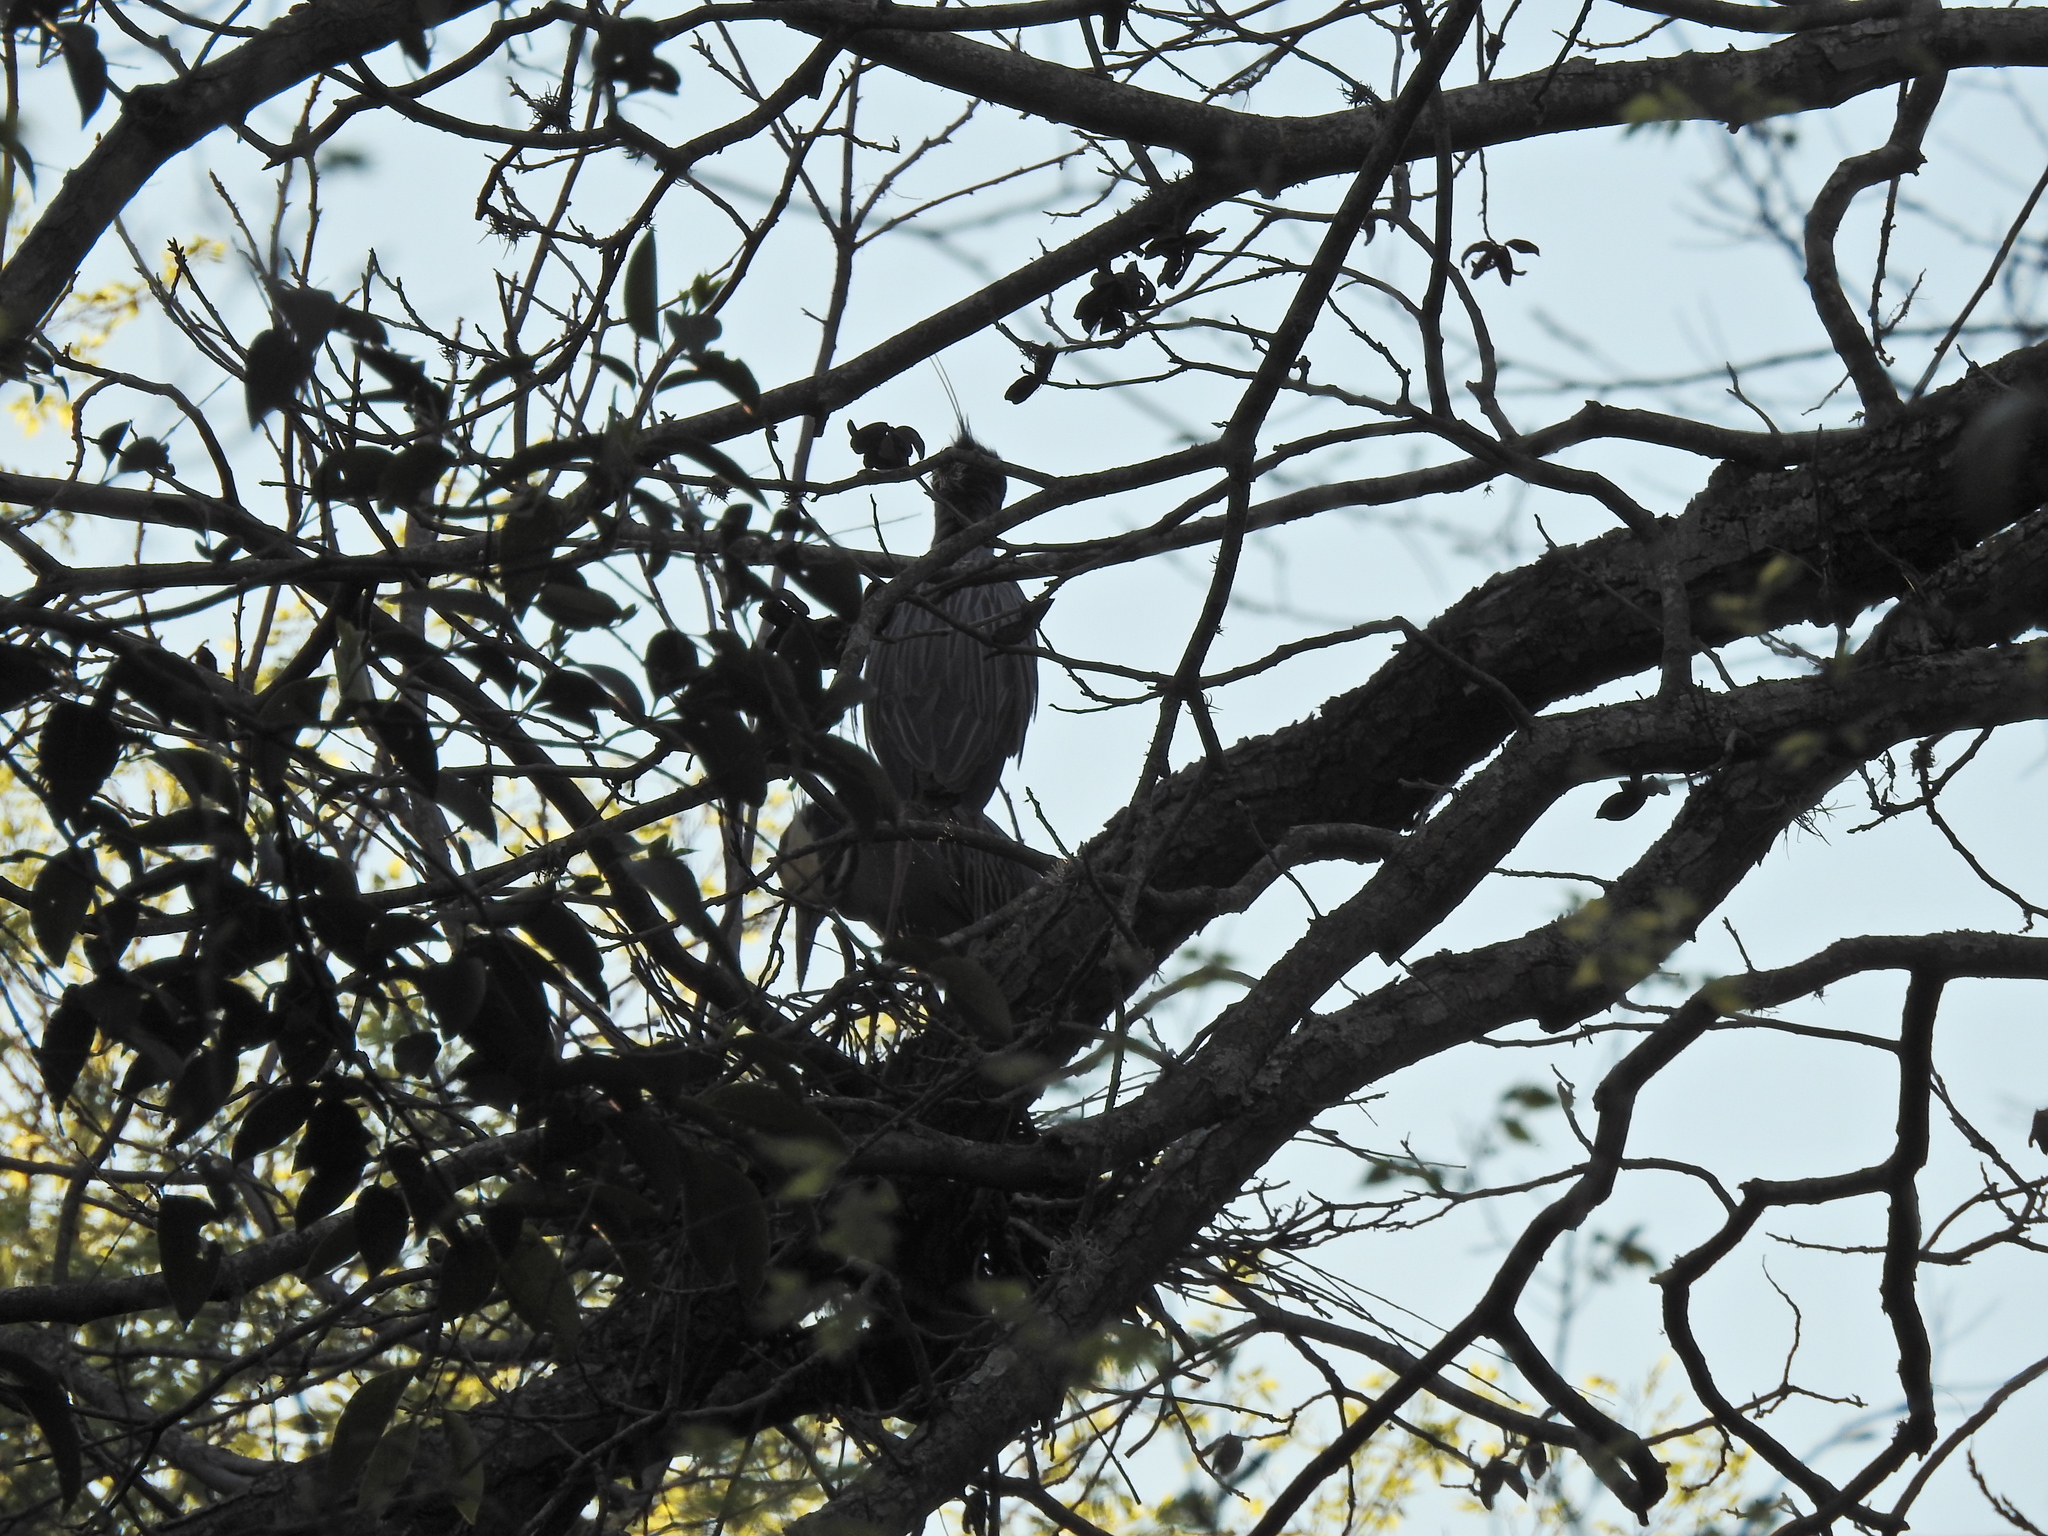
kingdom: Animalia
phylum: Chordata
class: Aves
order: Pelecaniformes
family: Ardeidae
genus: Nyctanassa
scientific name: Nyctanassa violacea
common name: Yellow-crowned night heron
